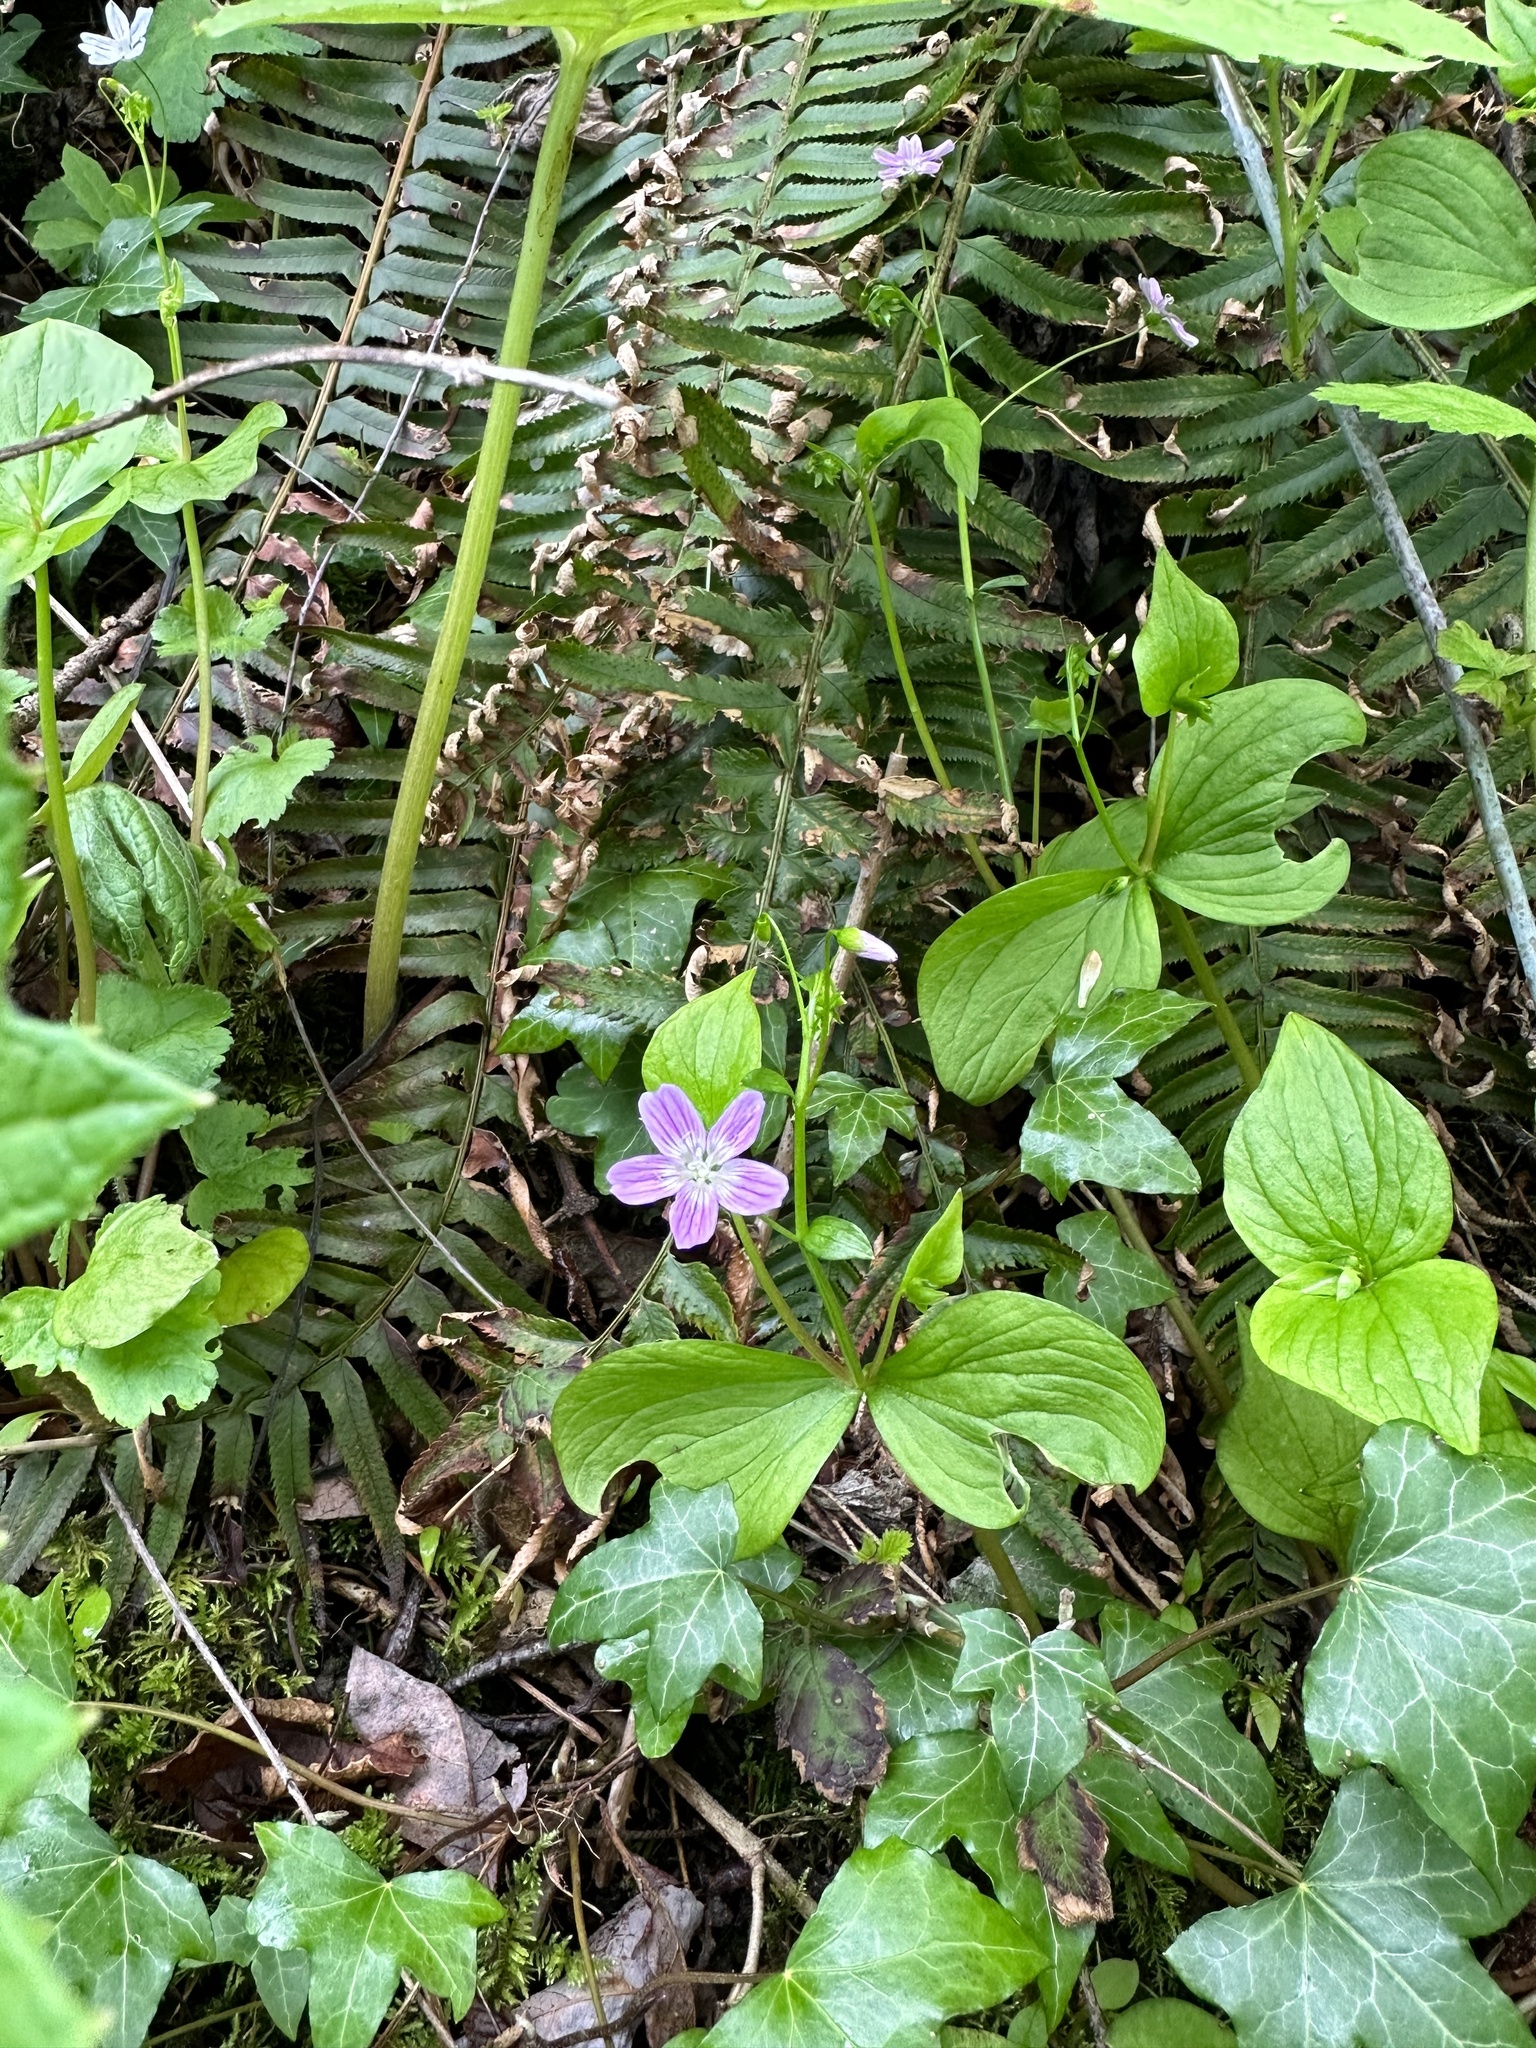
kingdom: Plantae
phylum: Tracheophyta
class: Magnoliopsida
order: Caryophyllales
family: Montiaceae
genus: Claytonia
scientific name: Claytonia sibirica
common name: Pink purslane
